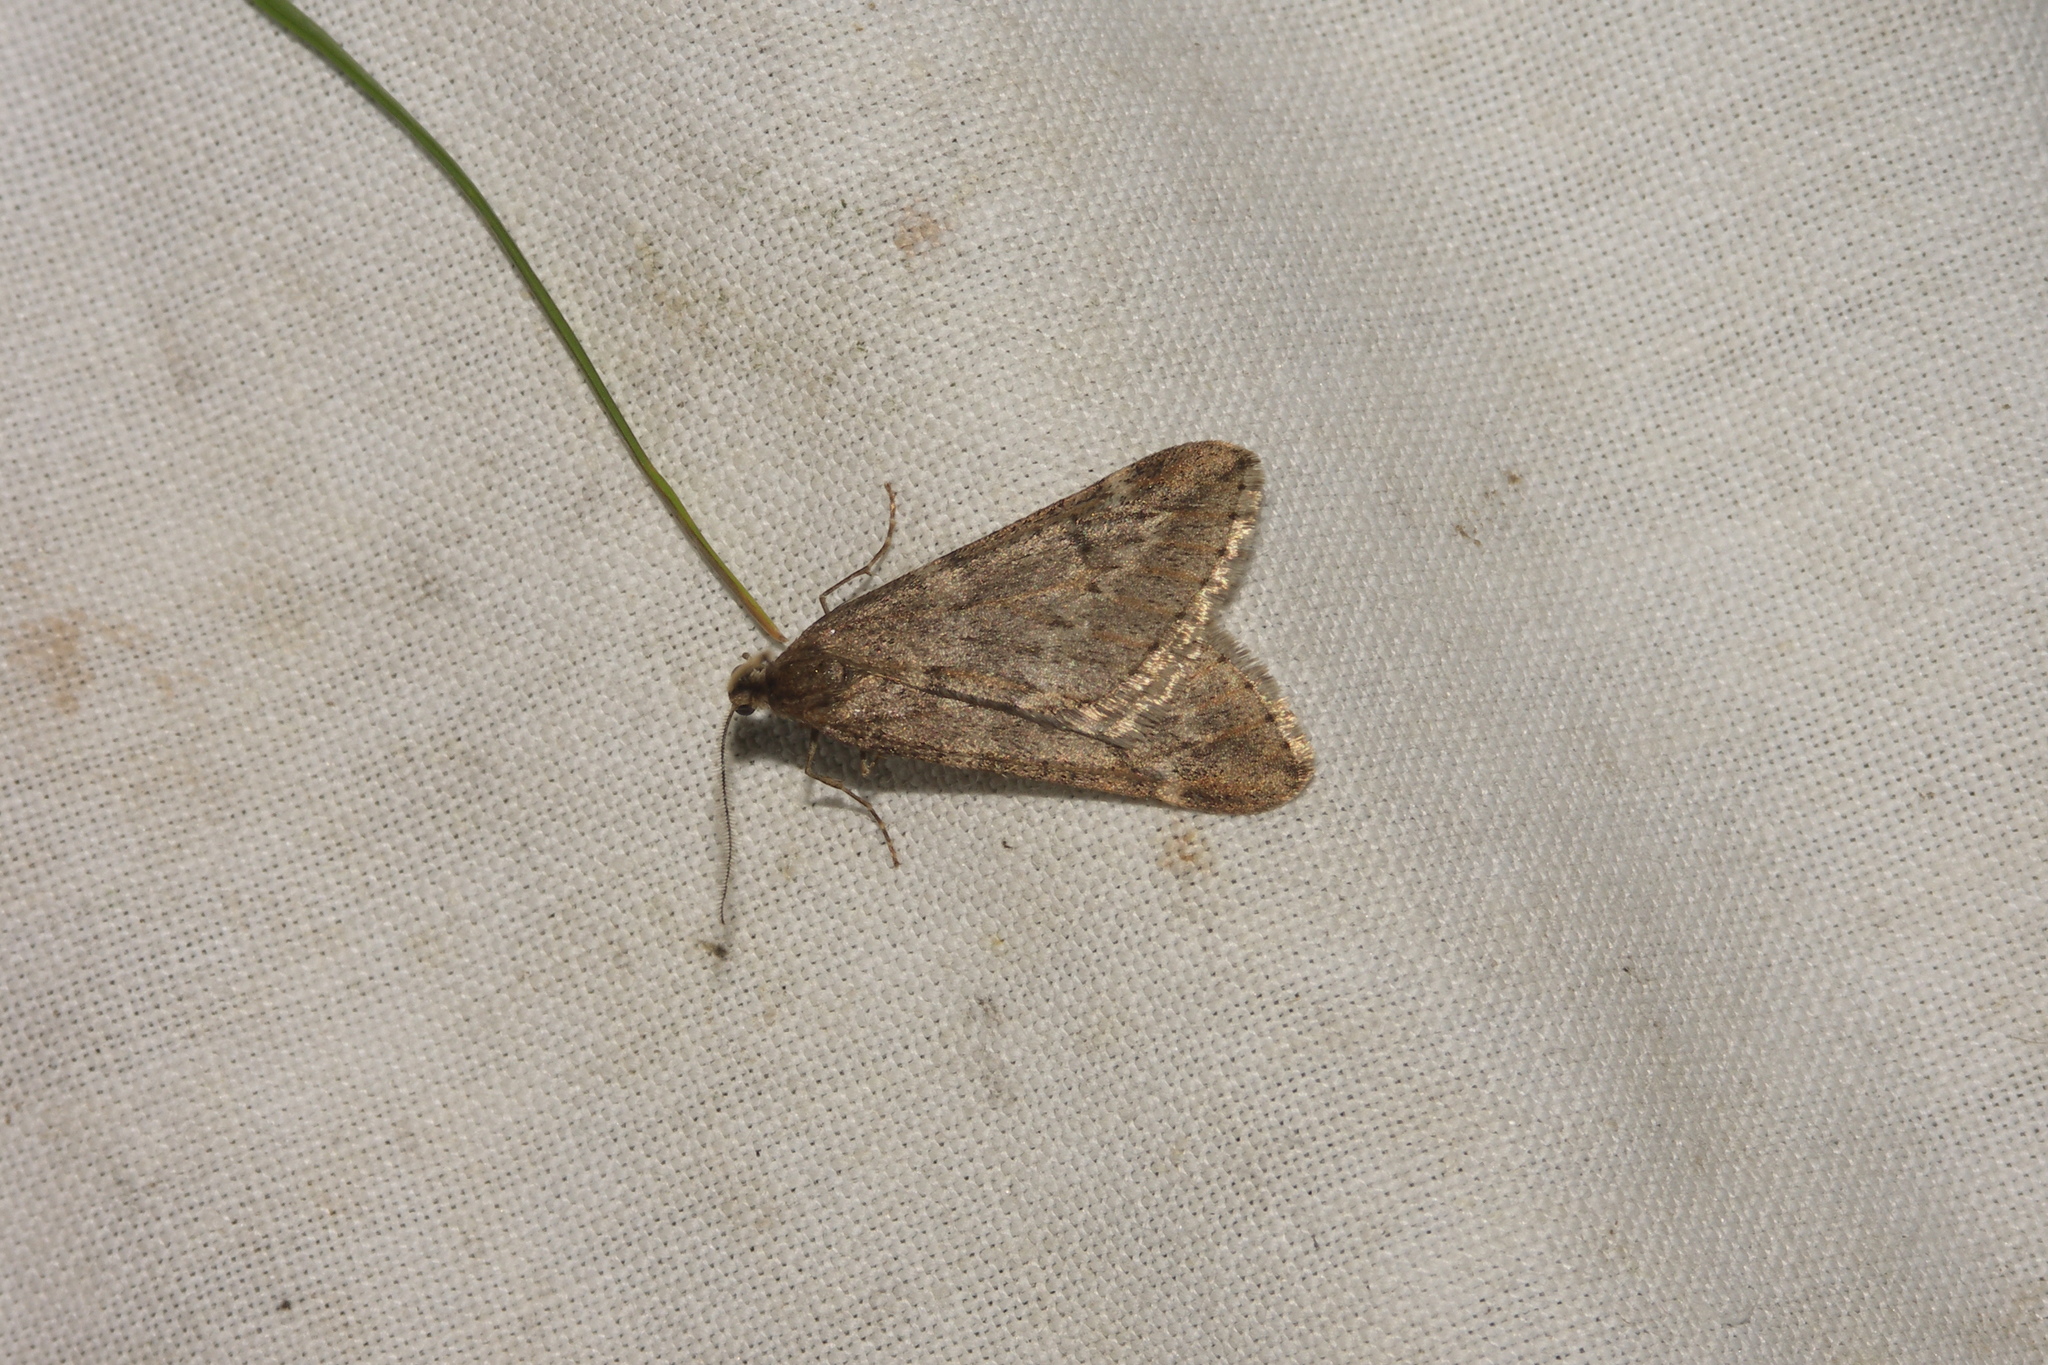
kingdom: Animalia
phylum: Arthropoda
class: Insecta
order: Lepidoptera
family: Geometridae
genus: Alsophila
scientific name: Alsophila aescularia
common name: March moth
